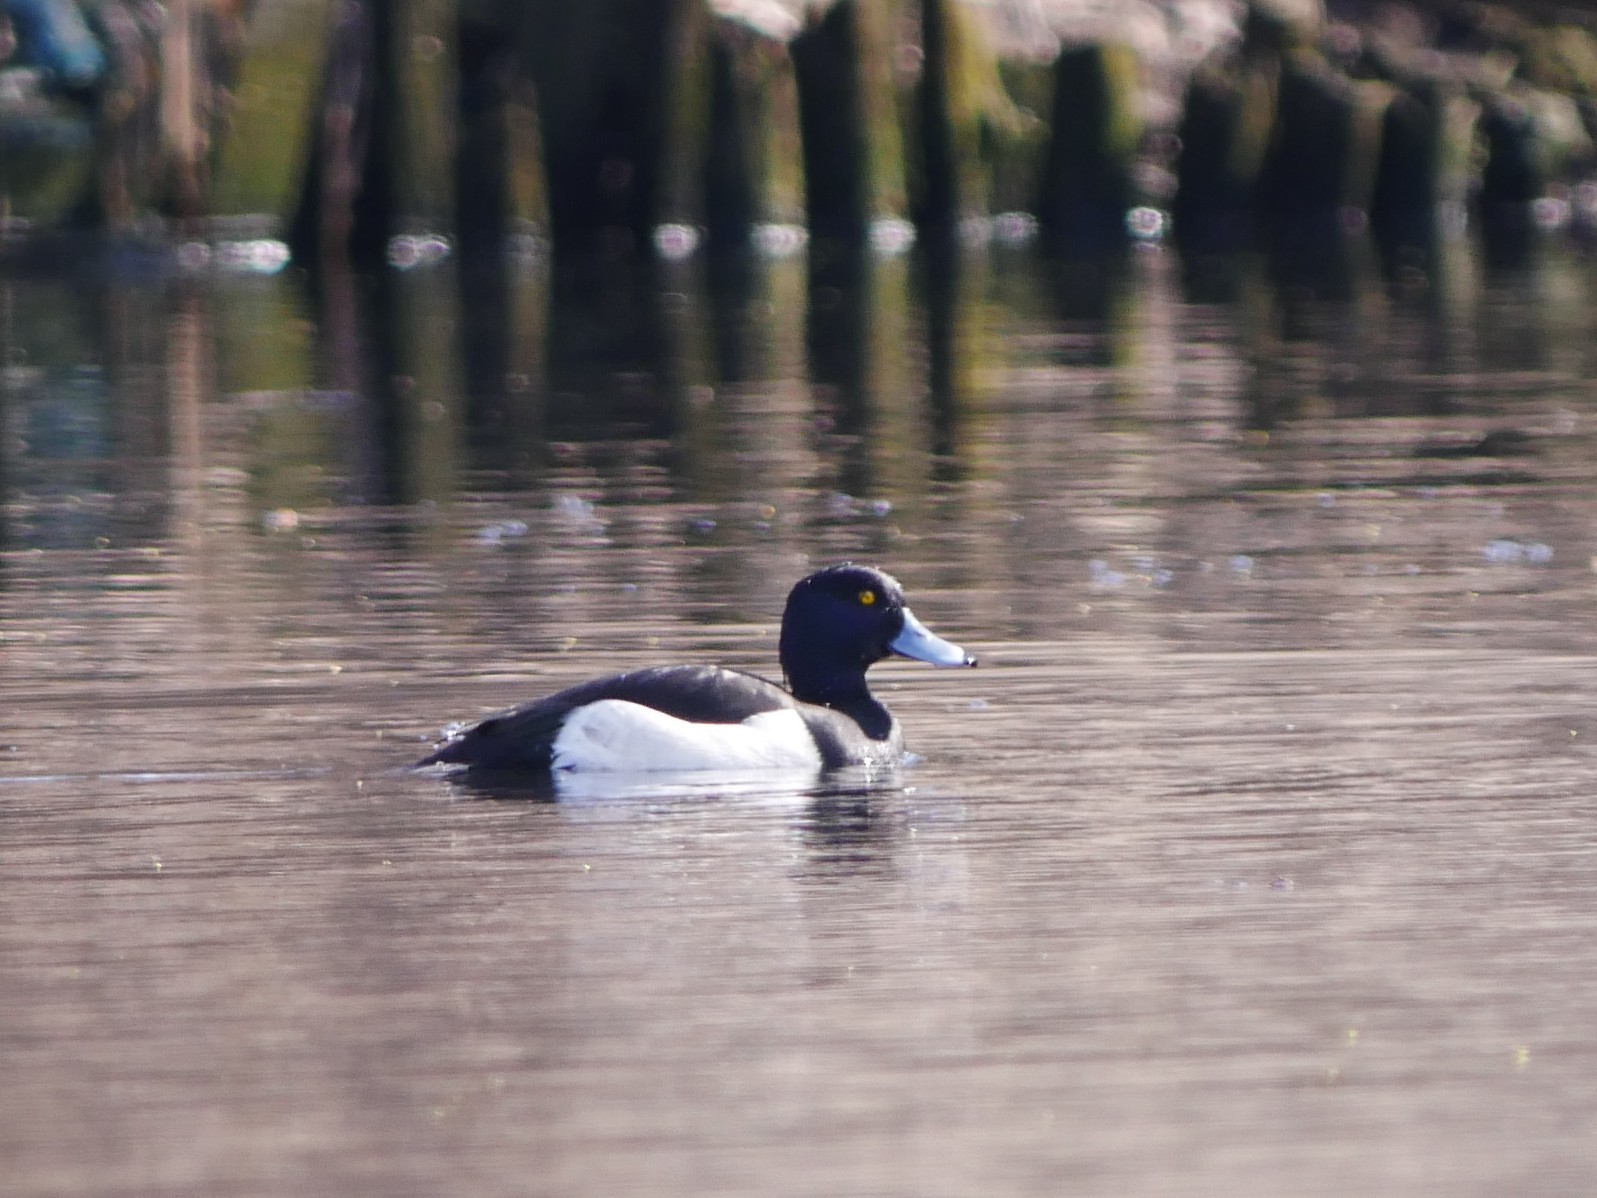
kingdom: Animalia
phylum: Chordata
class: Aves
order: Anseriformes
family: Anatidae
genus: Aythya
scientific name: Aythya fuligula
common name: Tufted duck
